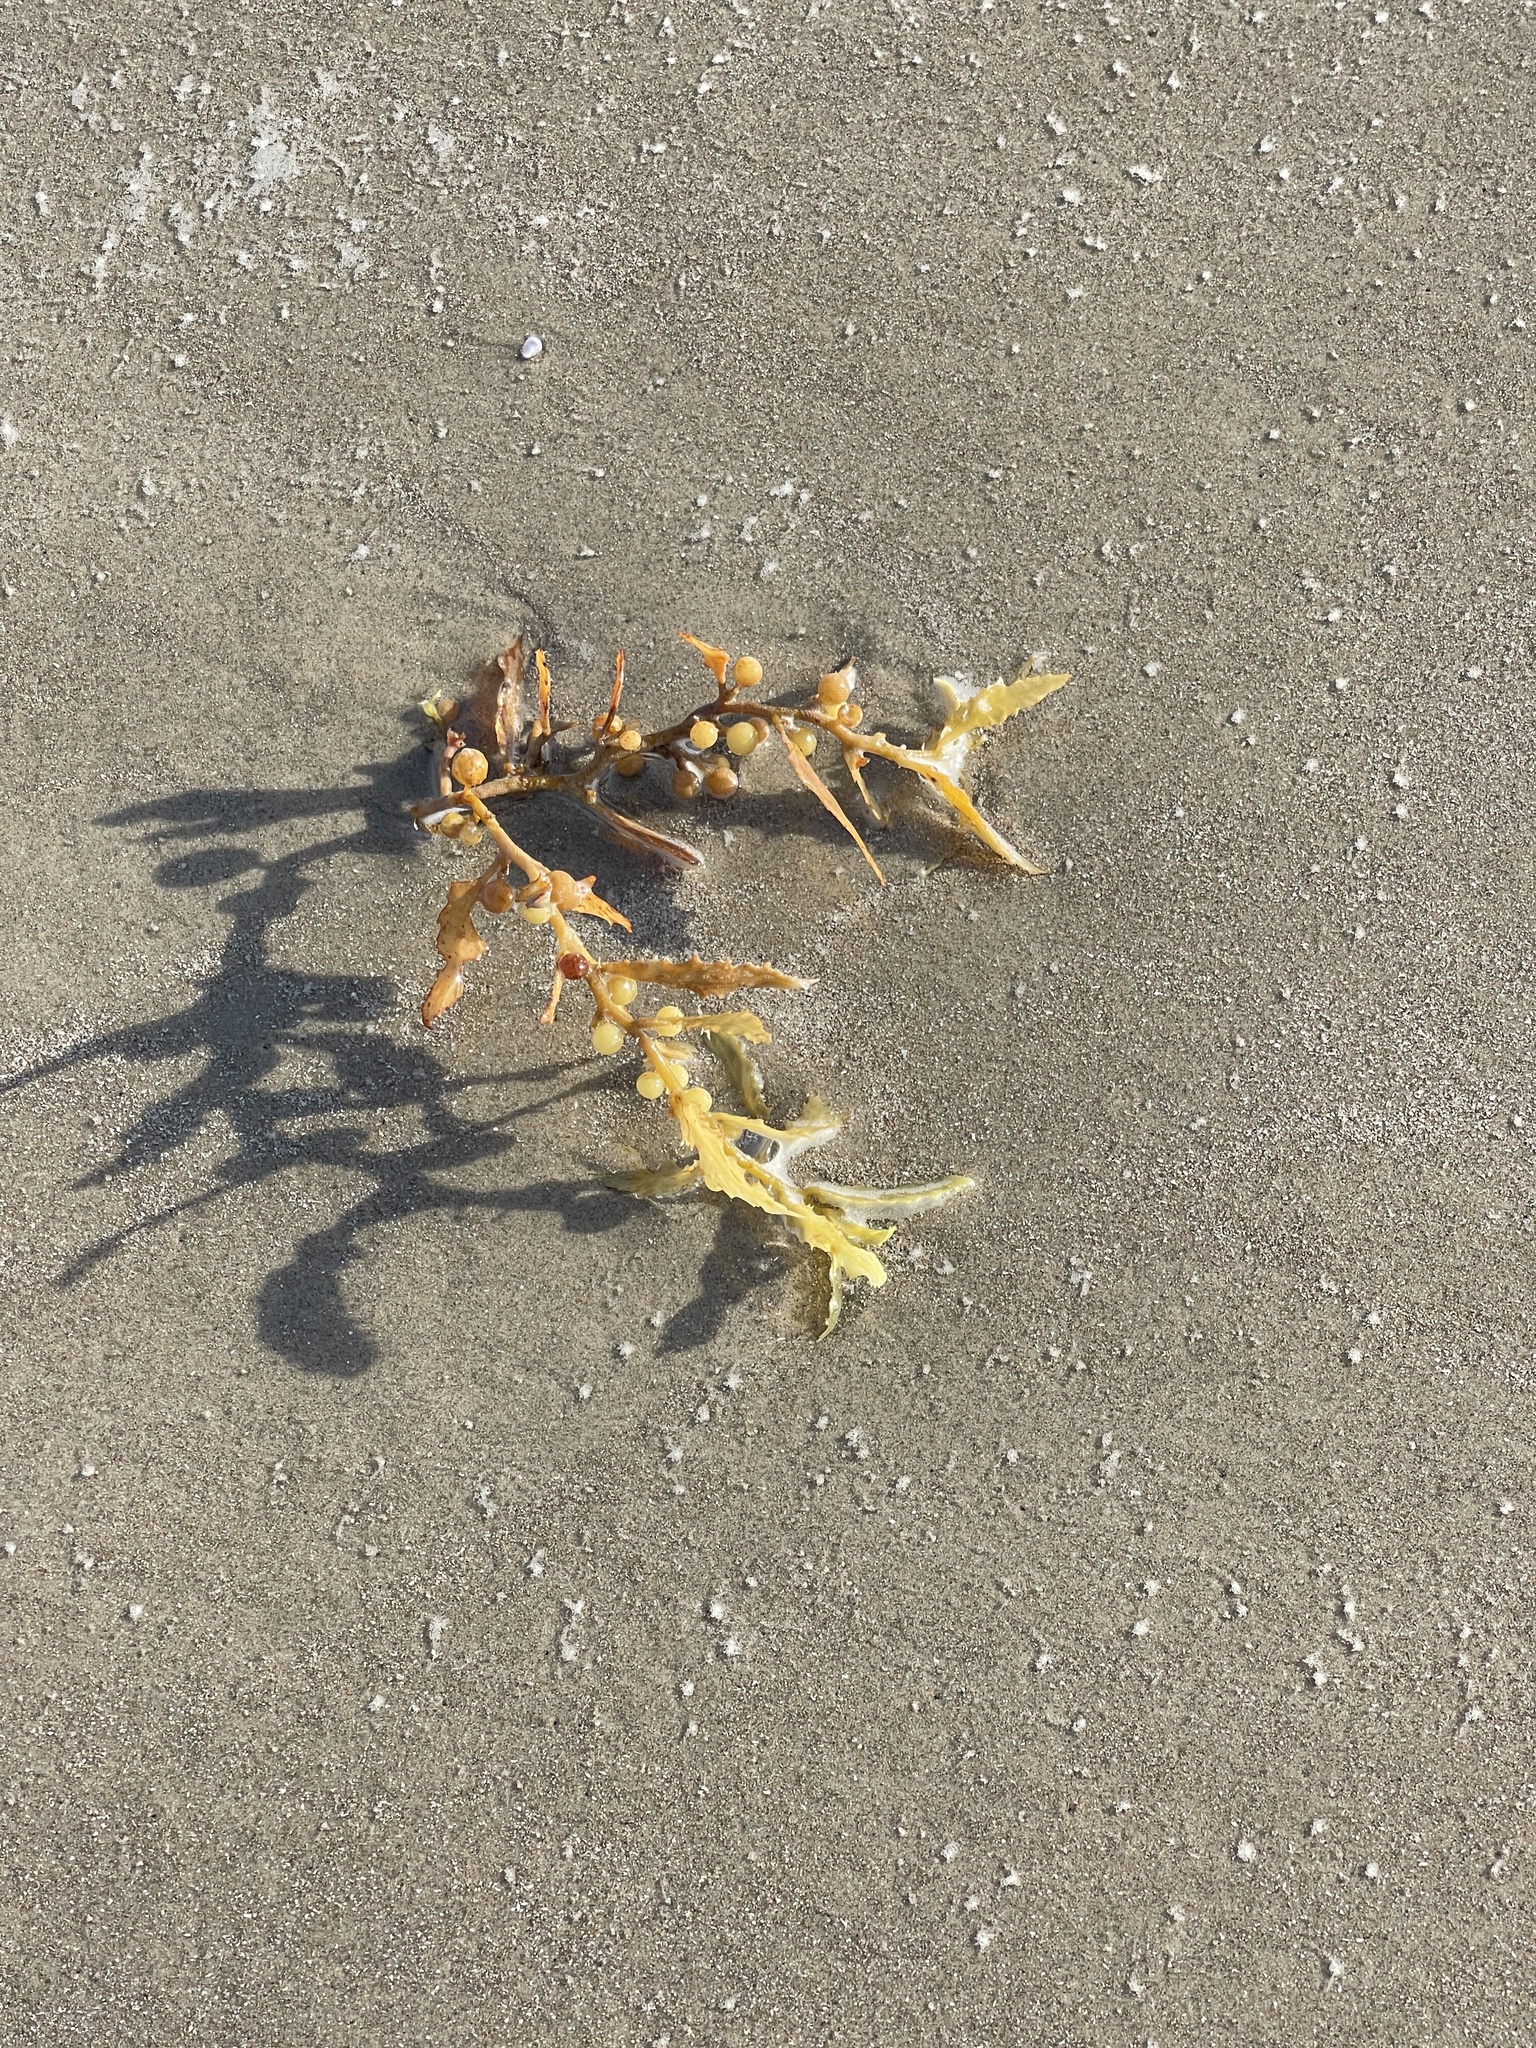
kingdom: Chromista
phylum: Ochrophyta
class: Phaeophyceae
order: Fucales
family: Sargassaceae
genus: Sargassum
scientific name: Sargassum fluitans
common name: Sargassum seaweed
